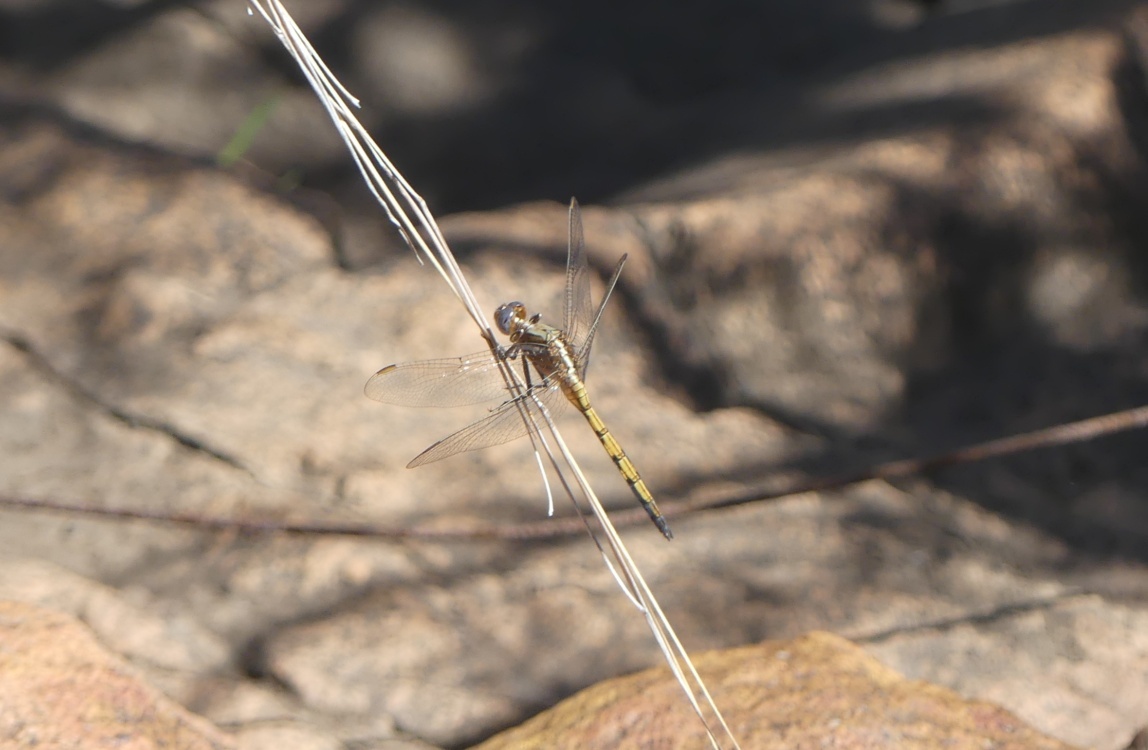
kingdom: Animalia
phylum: Arthropoda
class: Insecta
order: Odonata
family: Libellulidae
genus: Orthetrum
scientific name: Orthetrum chrysostigma
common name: Epaulet skimmer
